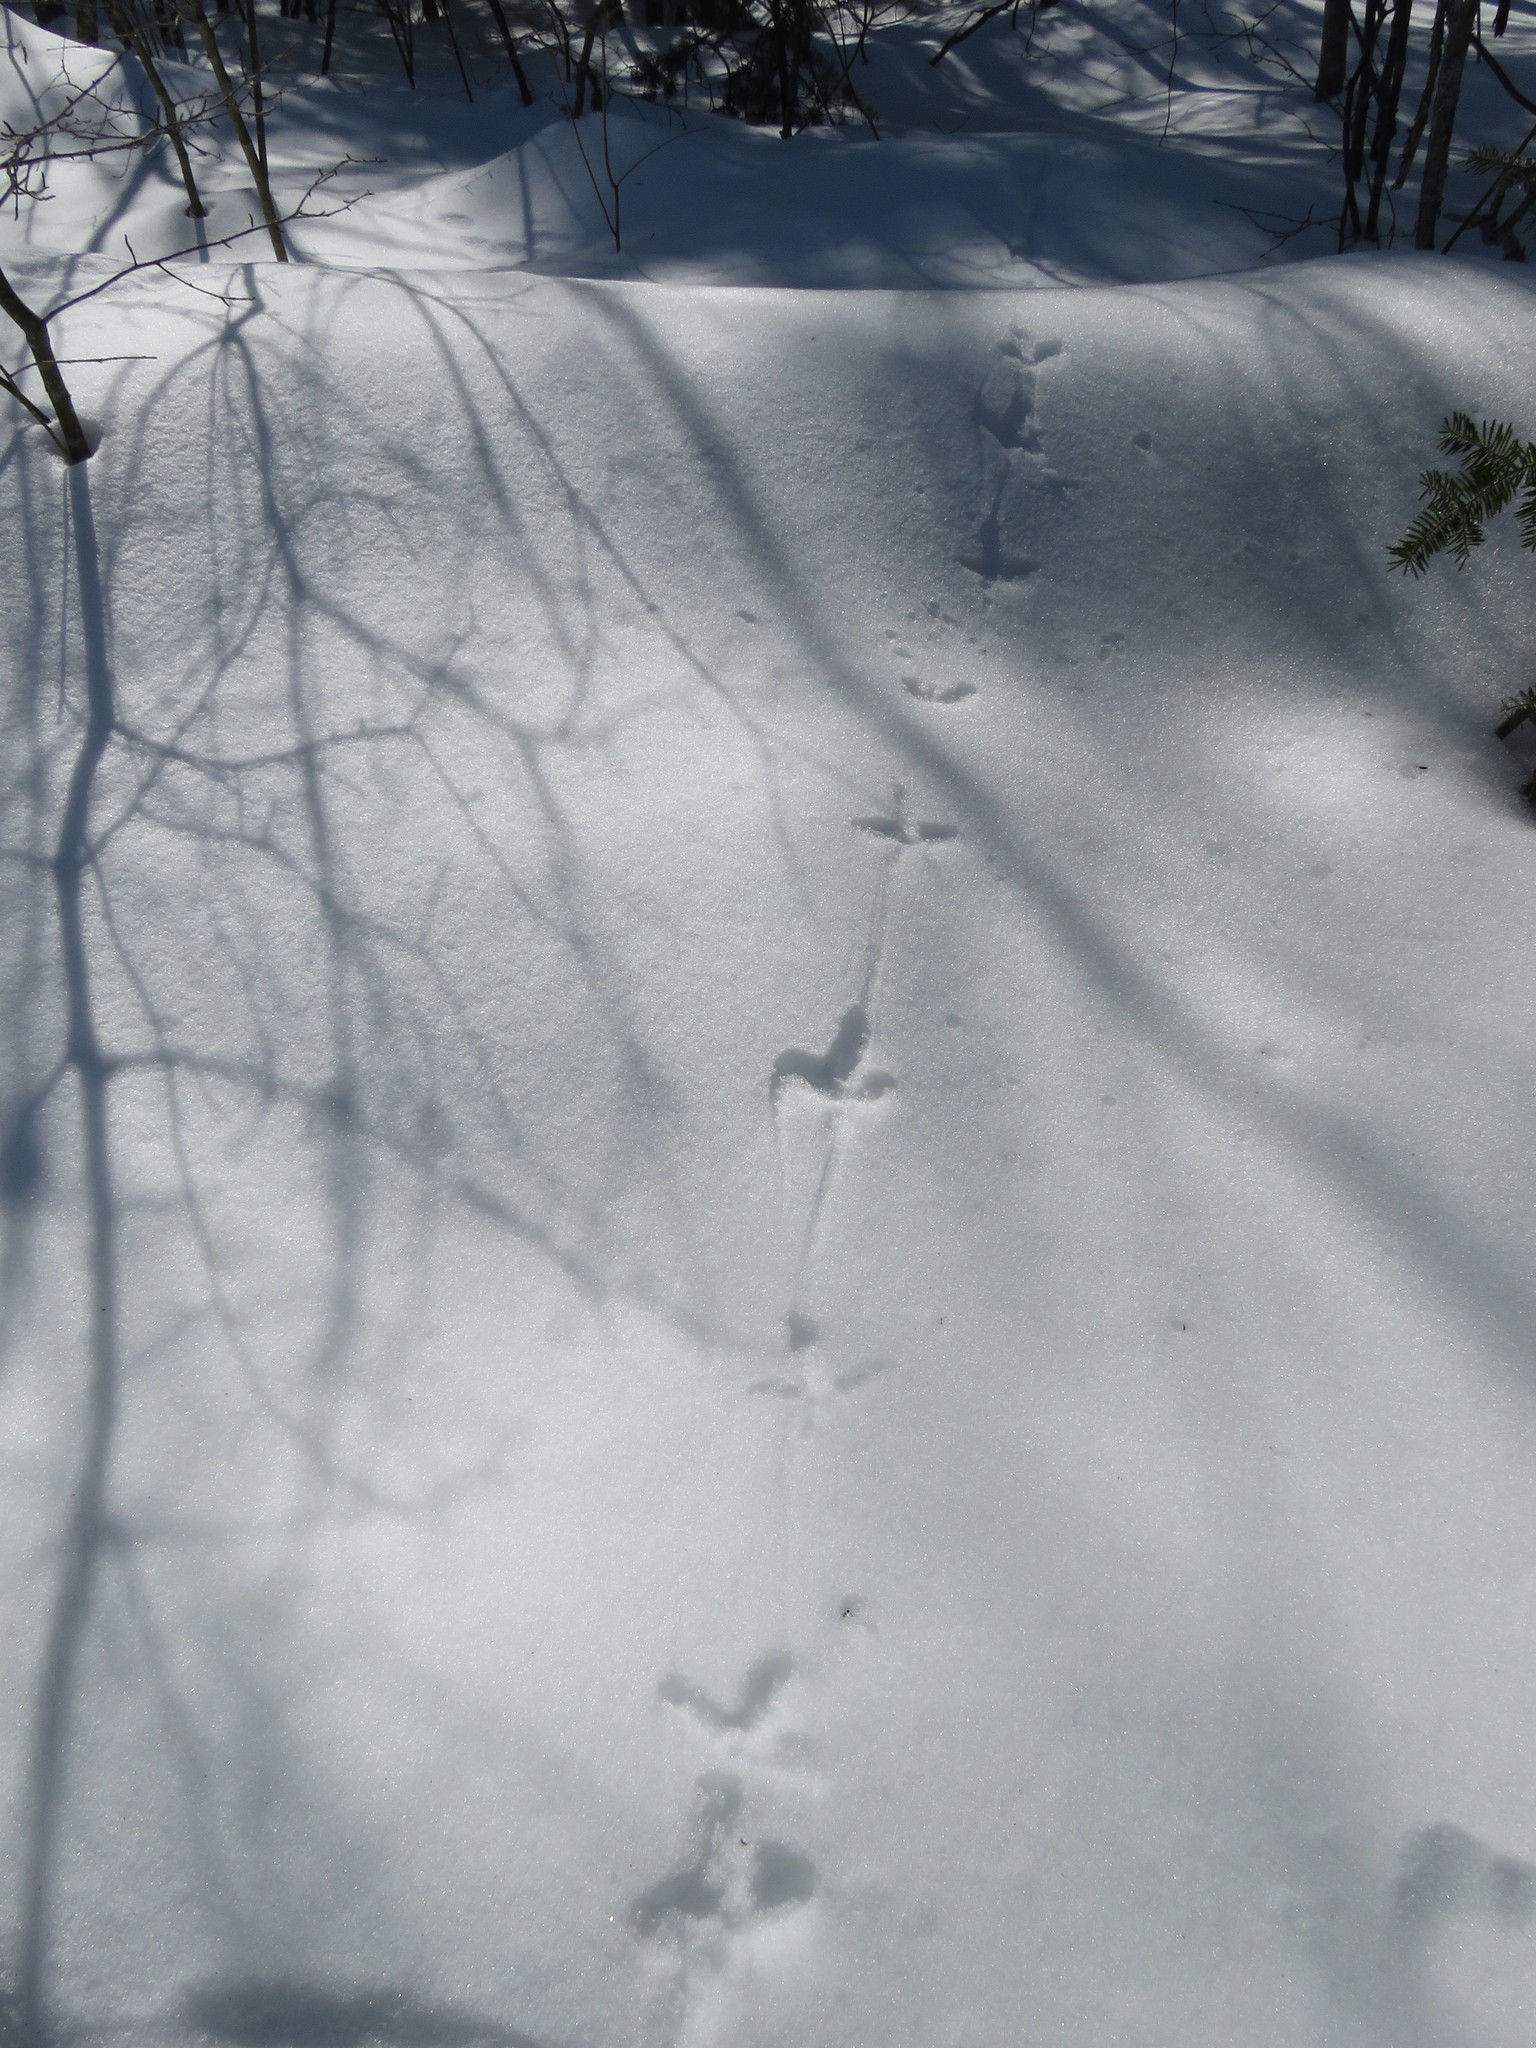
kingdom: Animalia
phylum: Chordata
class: Aves
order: Galliformes
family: Phasianidae
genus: Bonasa
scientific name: Bonasa umbellus
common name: Ruffed grouse
